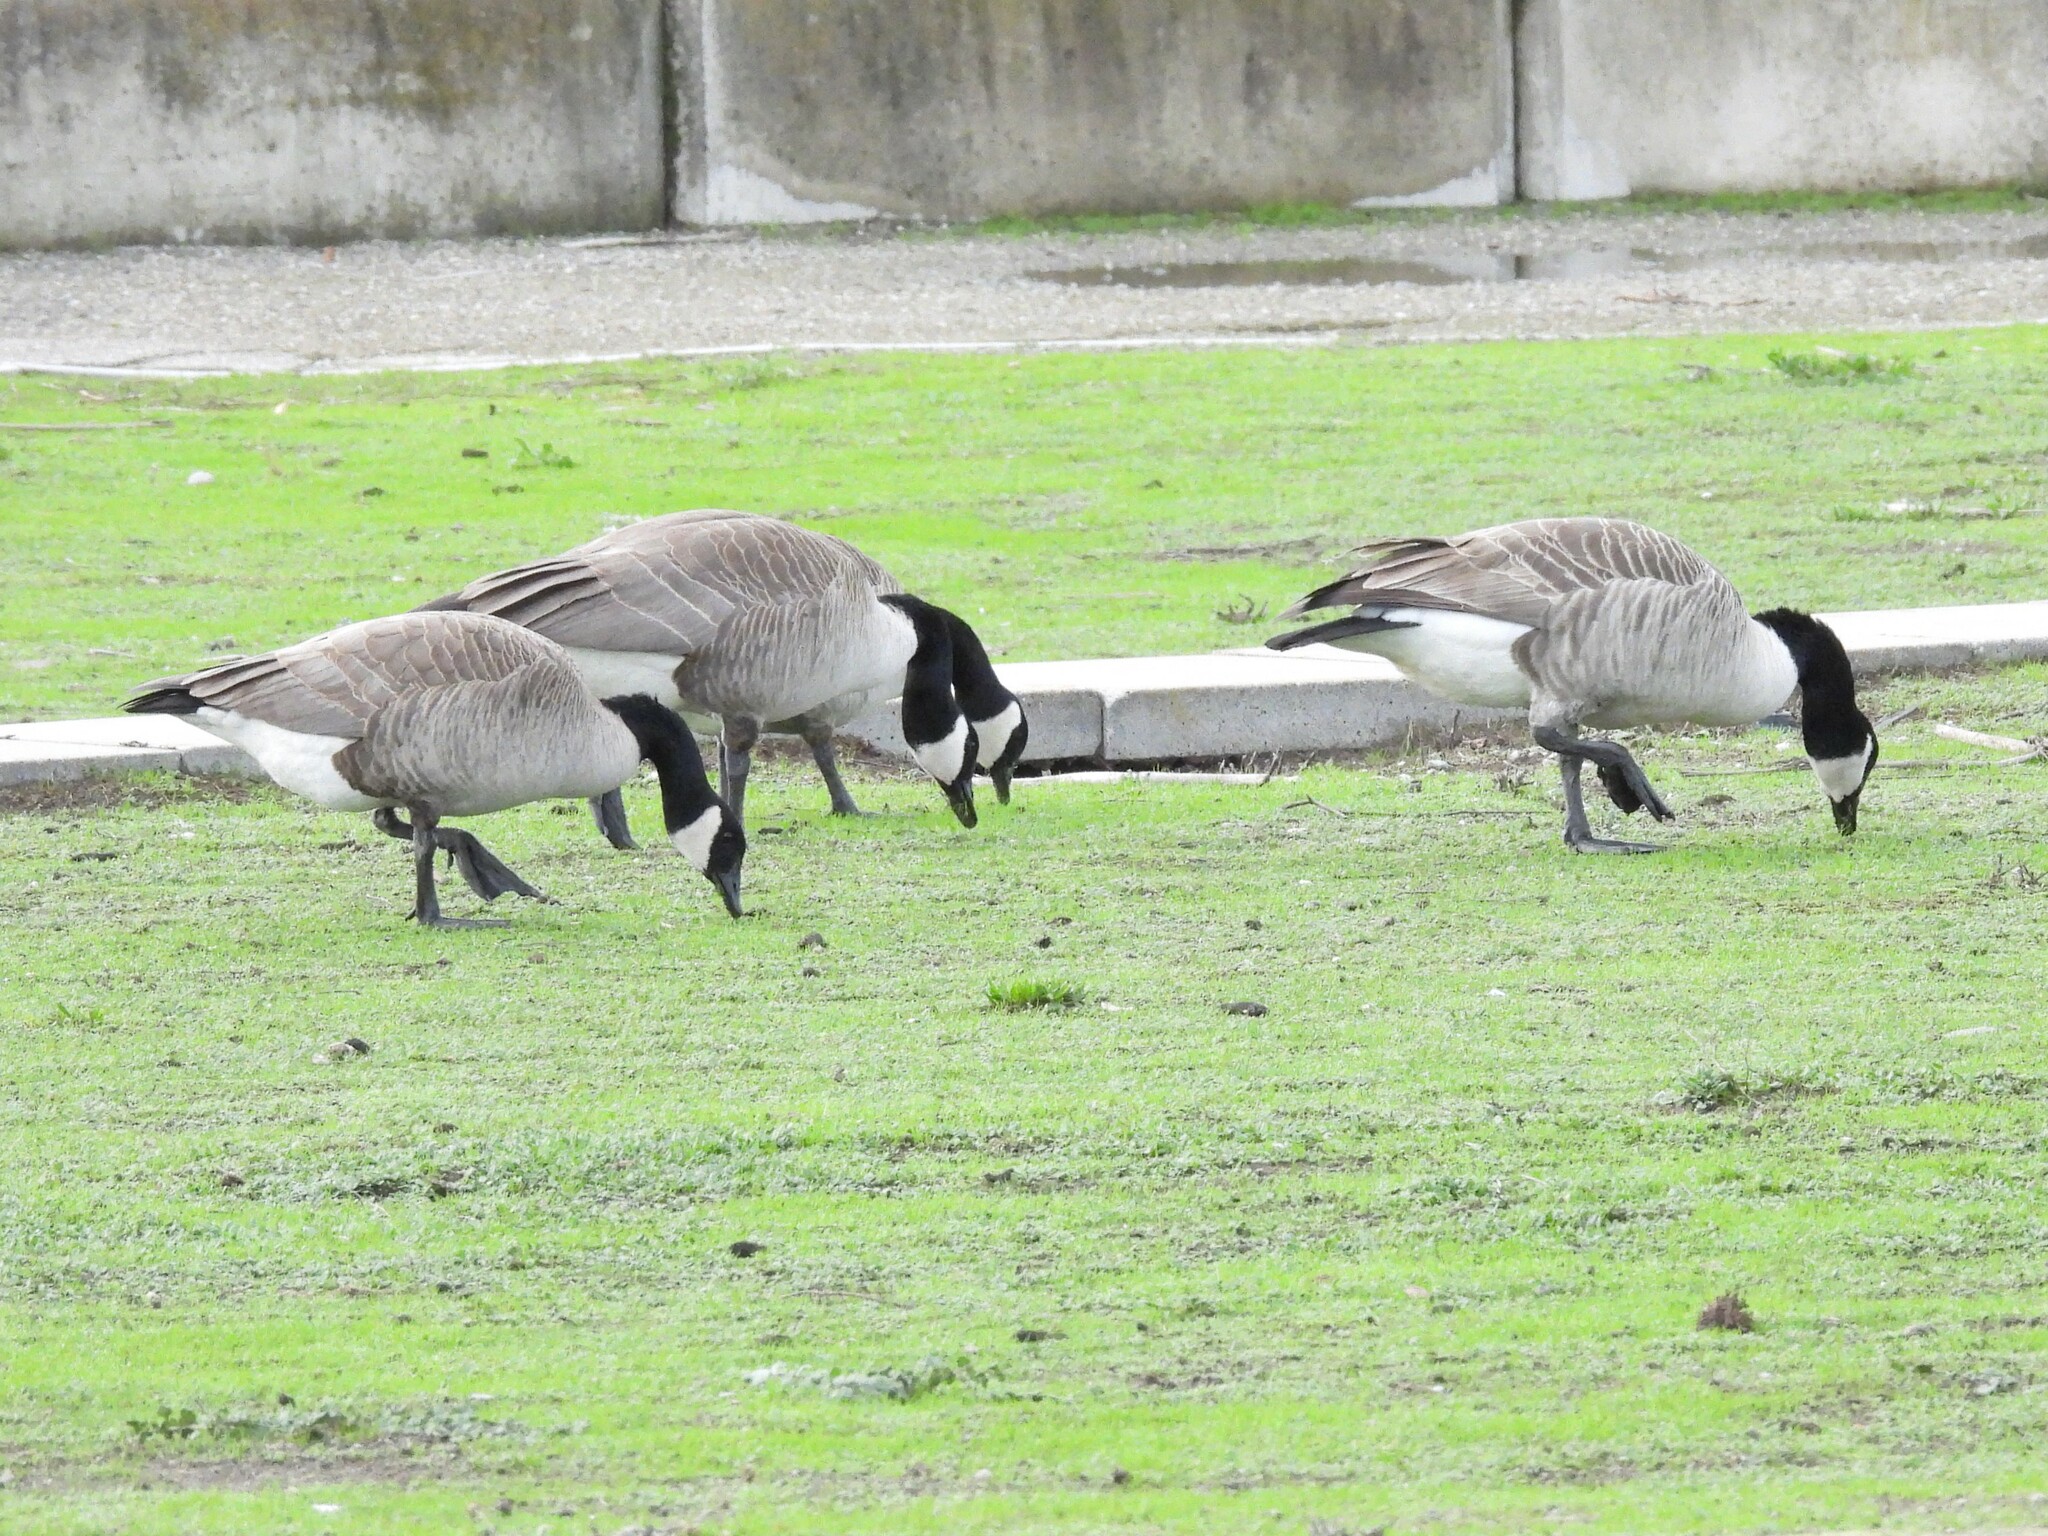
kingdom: Animalia
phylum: Chordata
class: Aves
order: Anseriformes
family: Anatidae
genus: Branta
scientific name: Branta canadensis
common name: Canada goose
